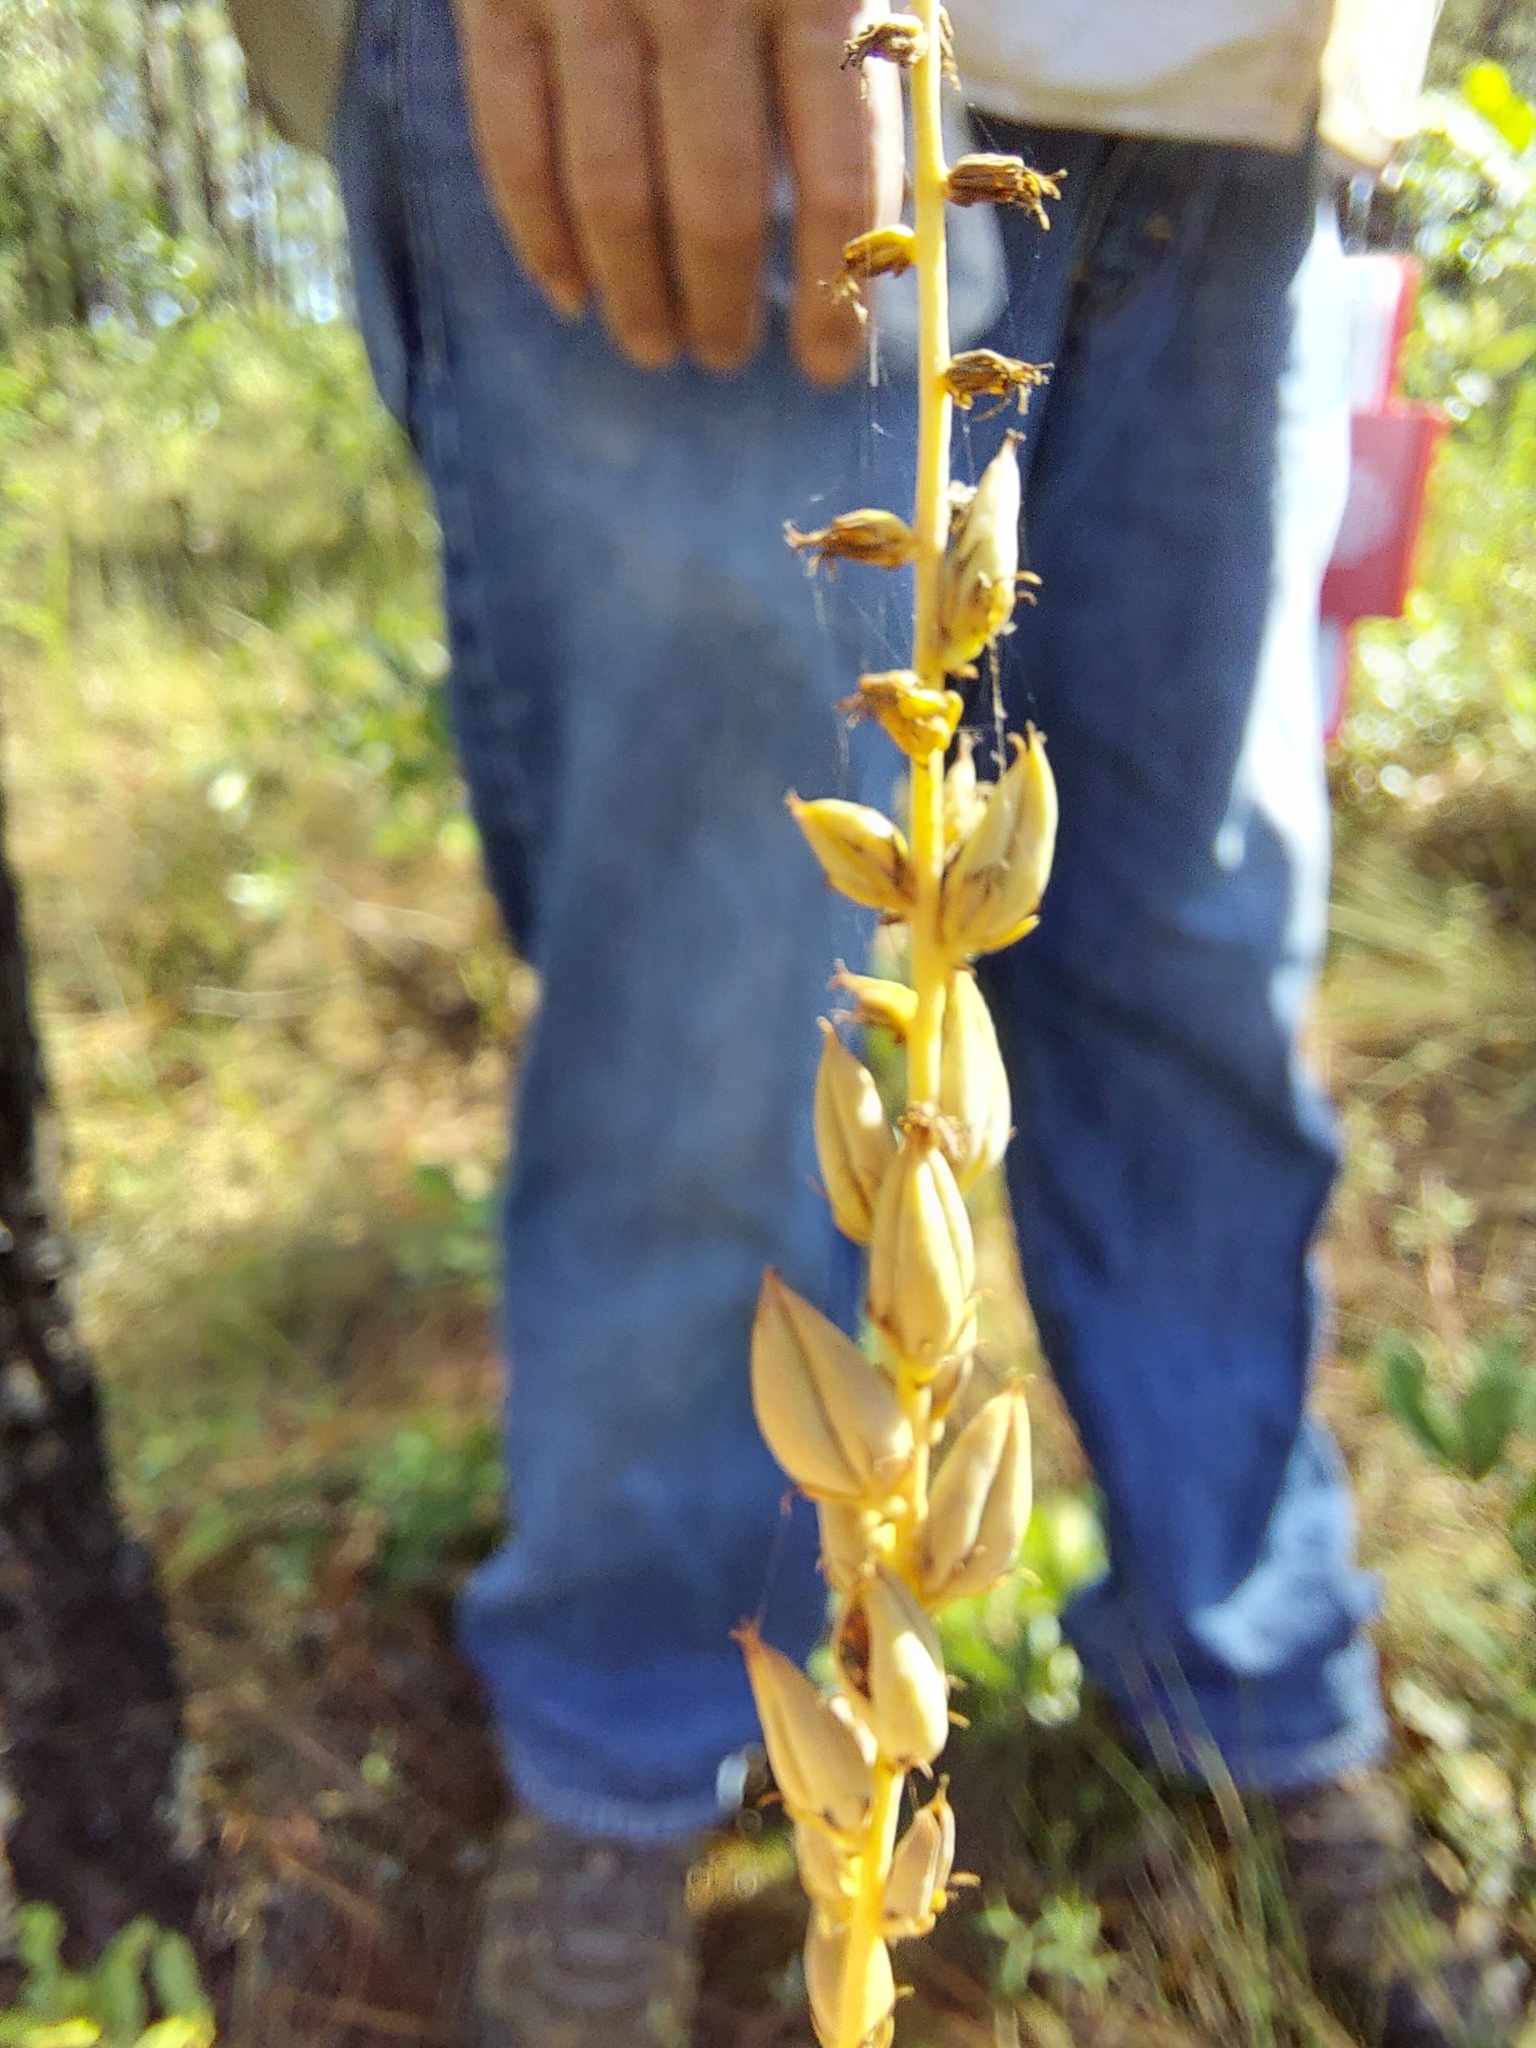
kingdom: Plantae
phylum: Tracheophyta
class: Liliopsida
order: Liliales
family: Melanthiaceae
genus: Schoenocaulon
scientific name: Schoenocaulon dubium
